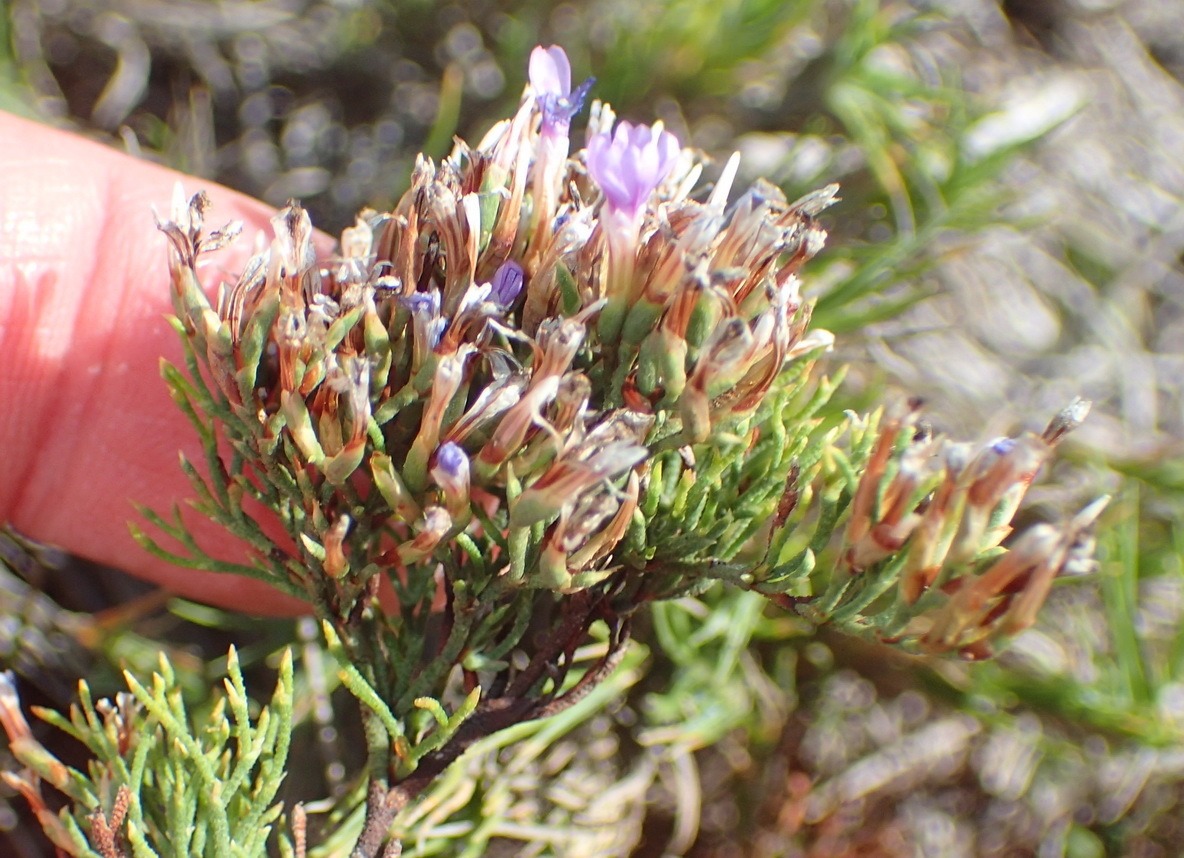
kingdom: Plantae
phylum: Tracheophyta
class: Magnoliopsida
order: Caryophyllales
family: Plumbaginaceae
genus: Limonium
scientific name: Limonium scabrum
